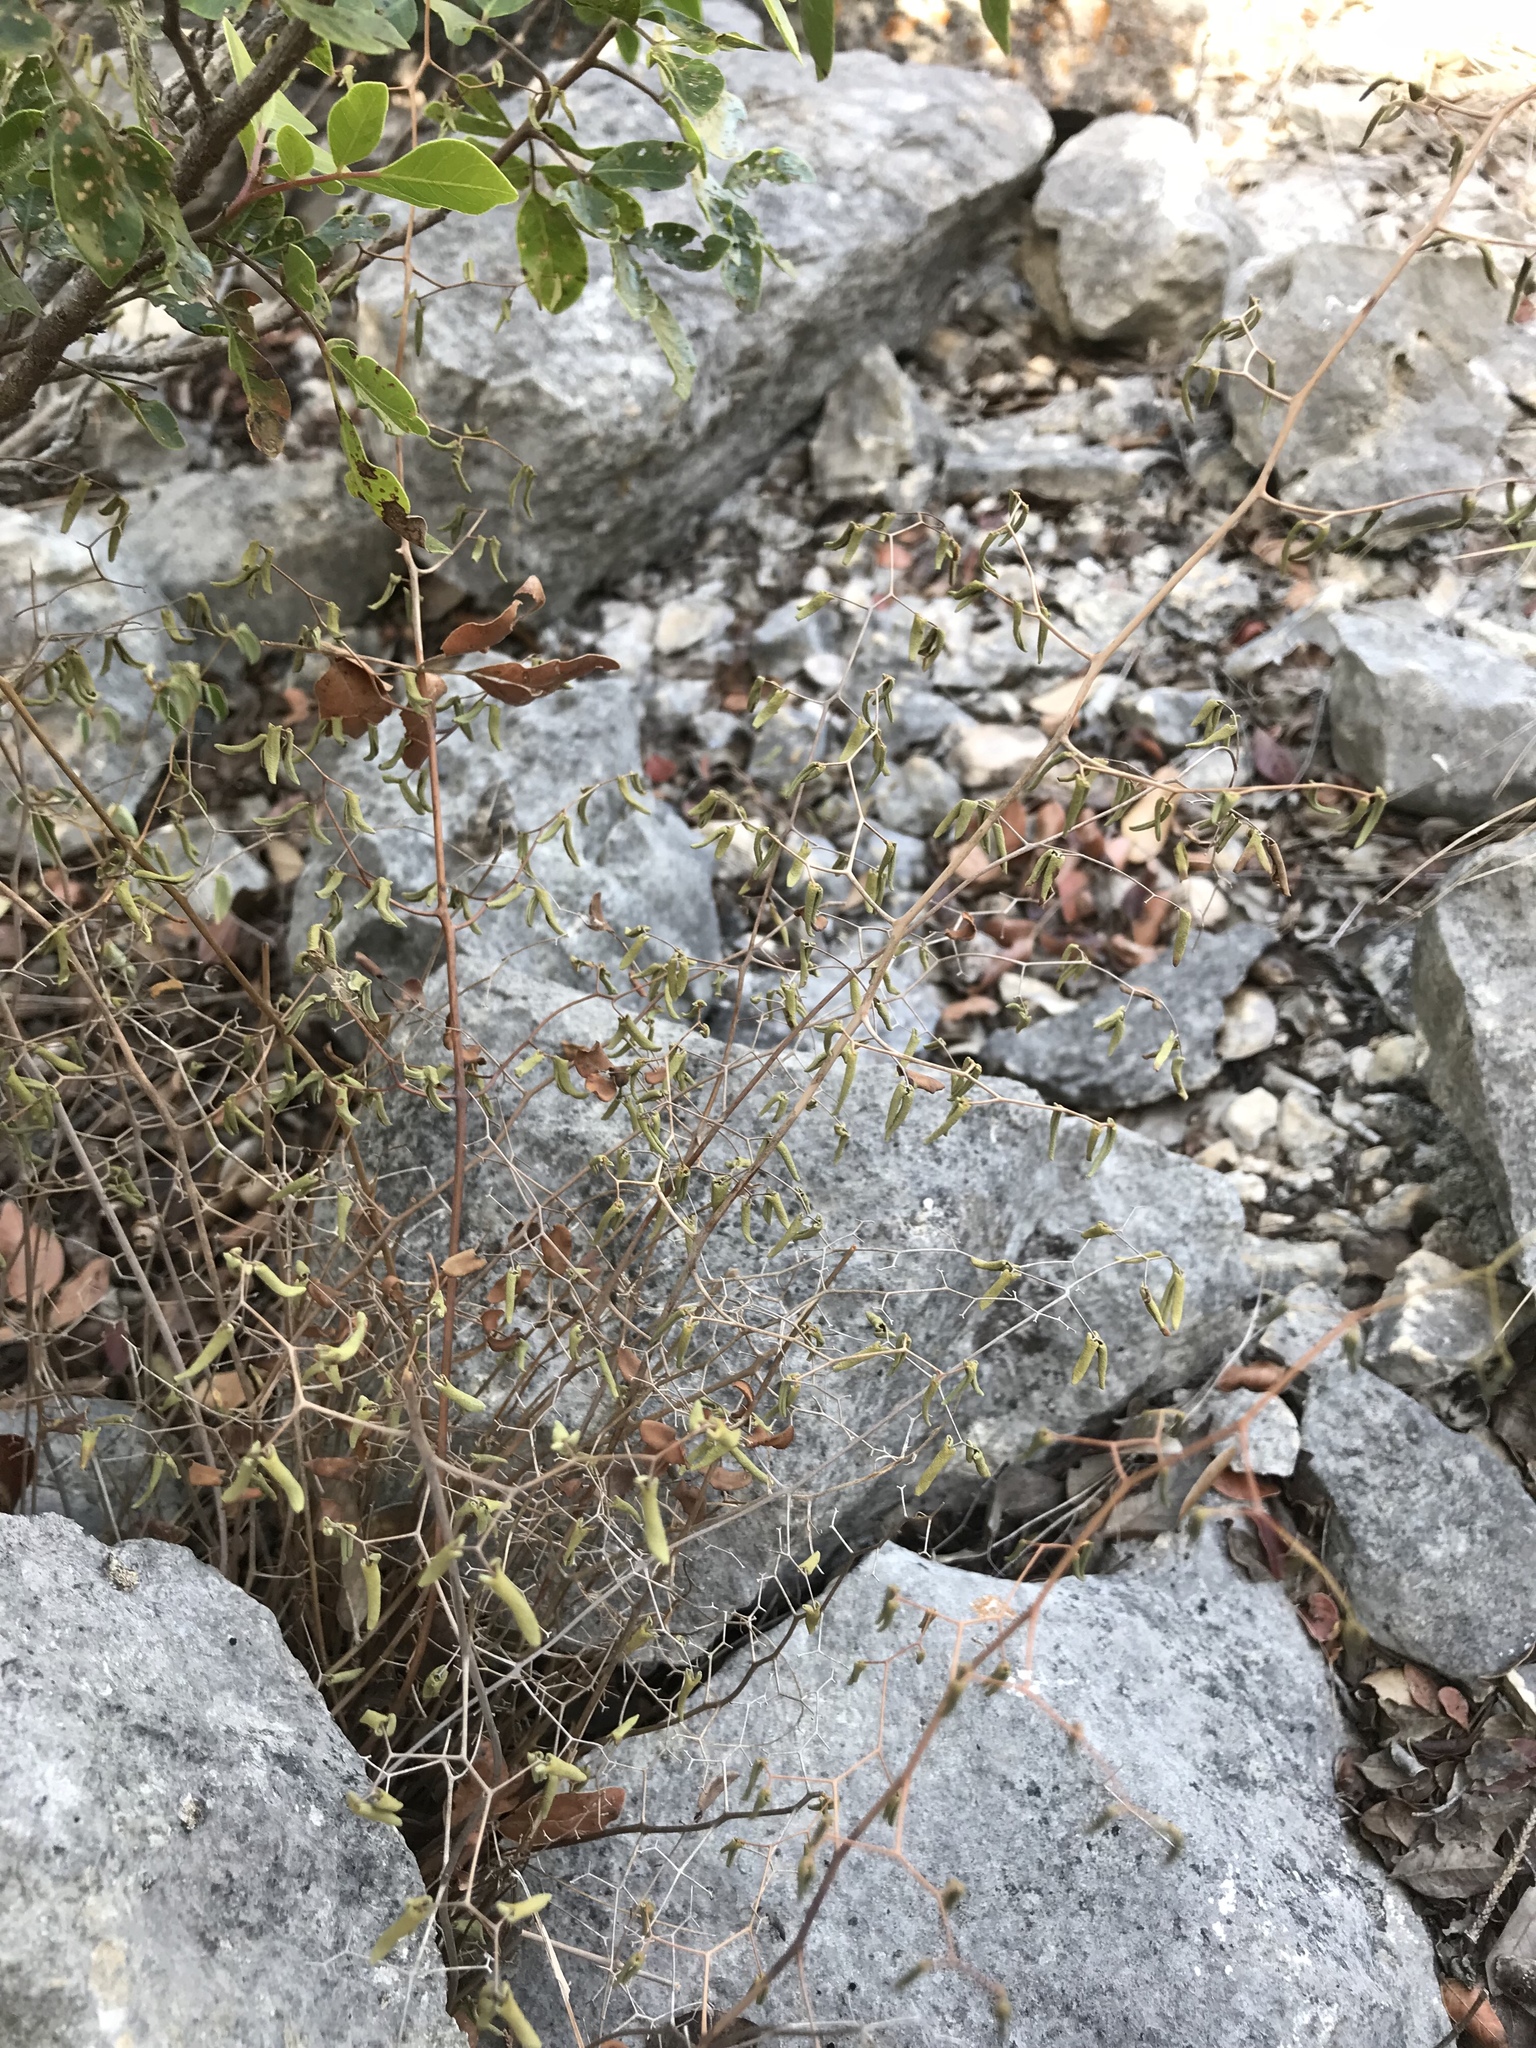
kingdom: Plantae
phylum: Tracheophyta
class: Polypodiopsida
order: Polypodiales
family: Pteridaceae
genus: Pellaea
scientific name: Pellaea ovata
